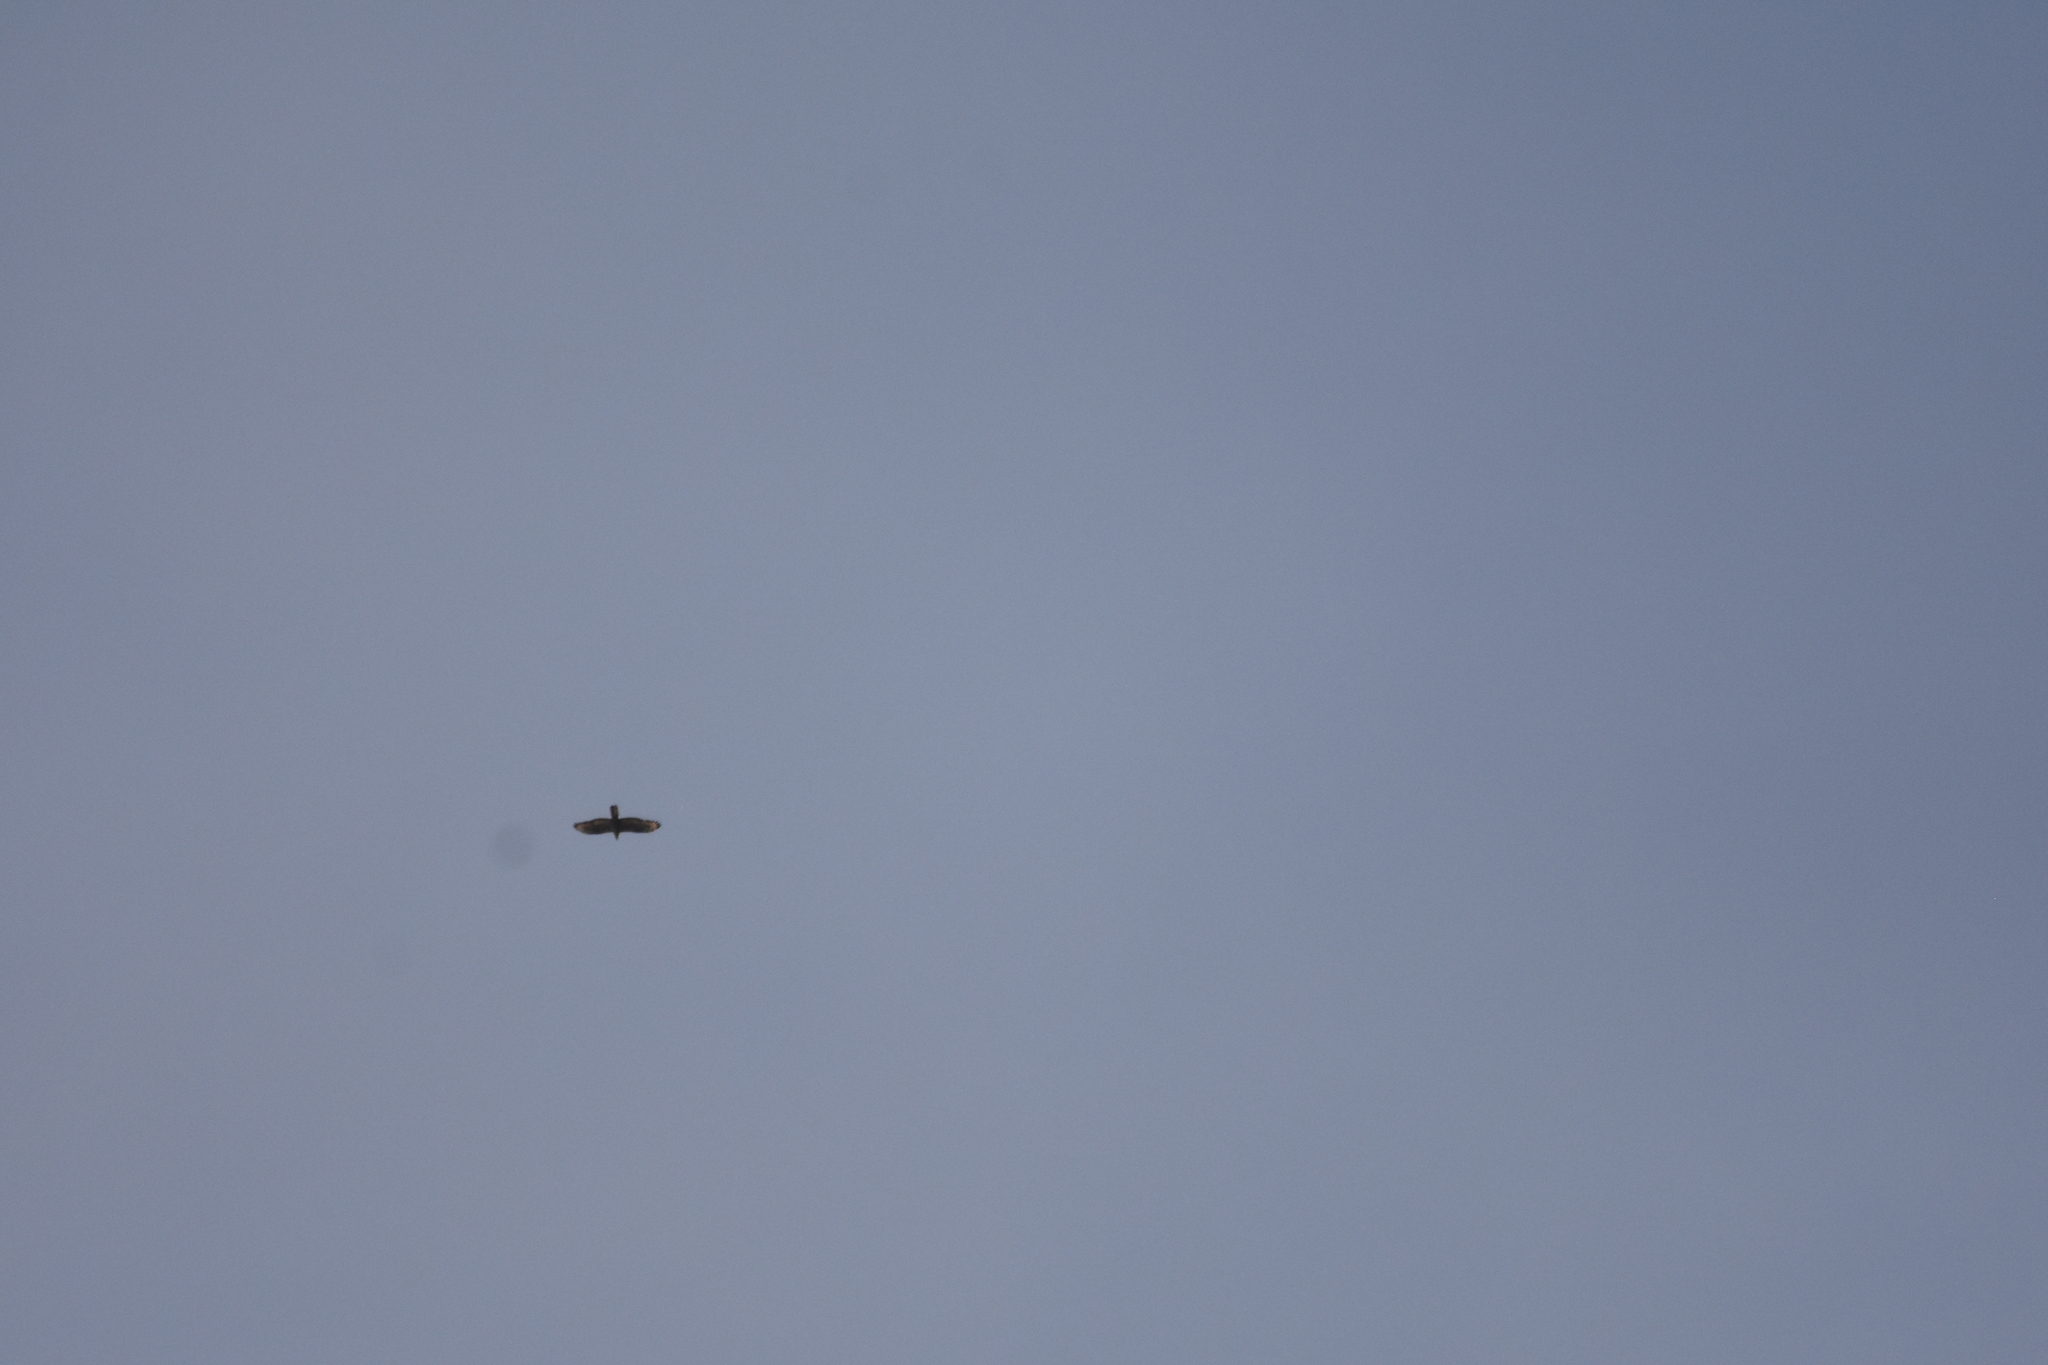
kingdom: Animalia
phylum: Chordata
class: Aves
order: Accipitriformes
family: Accipitridae
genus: Pernis
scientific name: Pernis apivorus
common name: European honey buzzard
